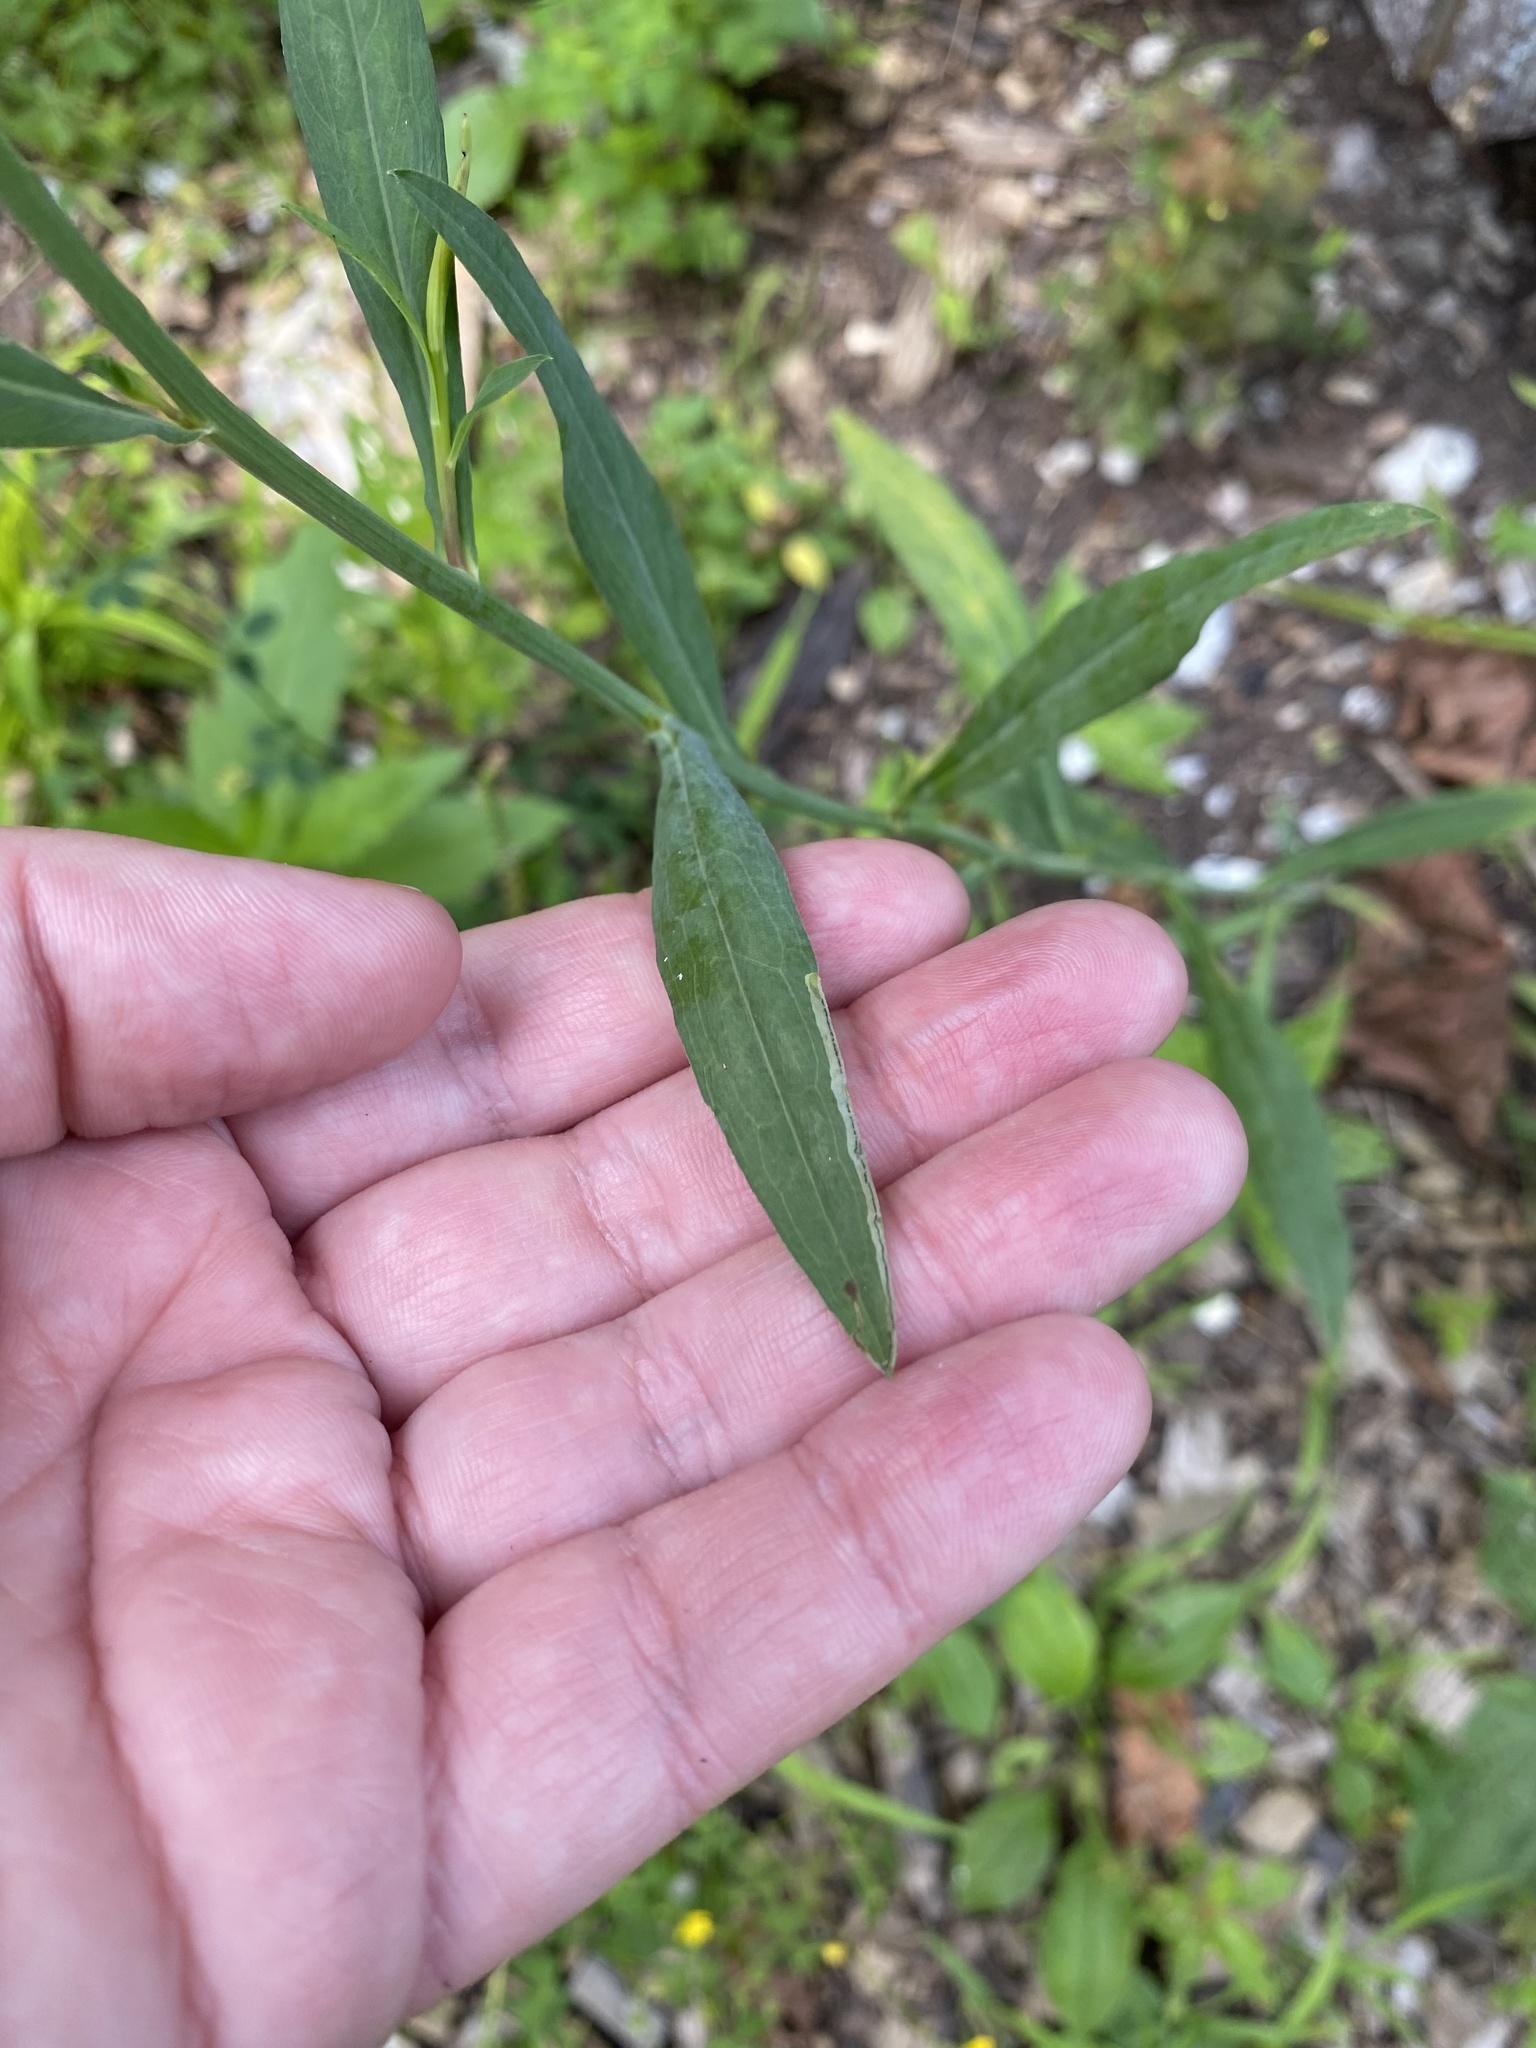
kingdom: Animalia
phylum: Arthropoda
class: Insecta
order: Diptera
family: Agromyzidae
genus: Liriomyza
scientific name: Liriomyza eupatorii
